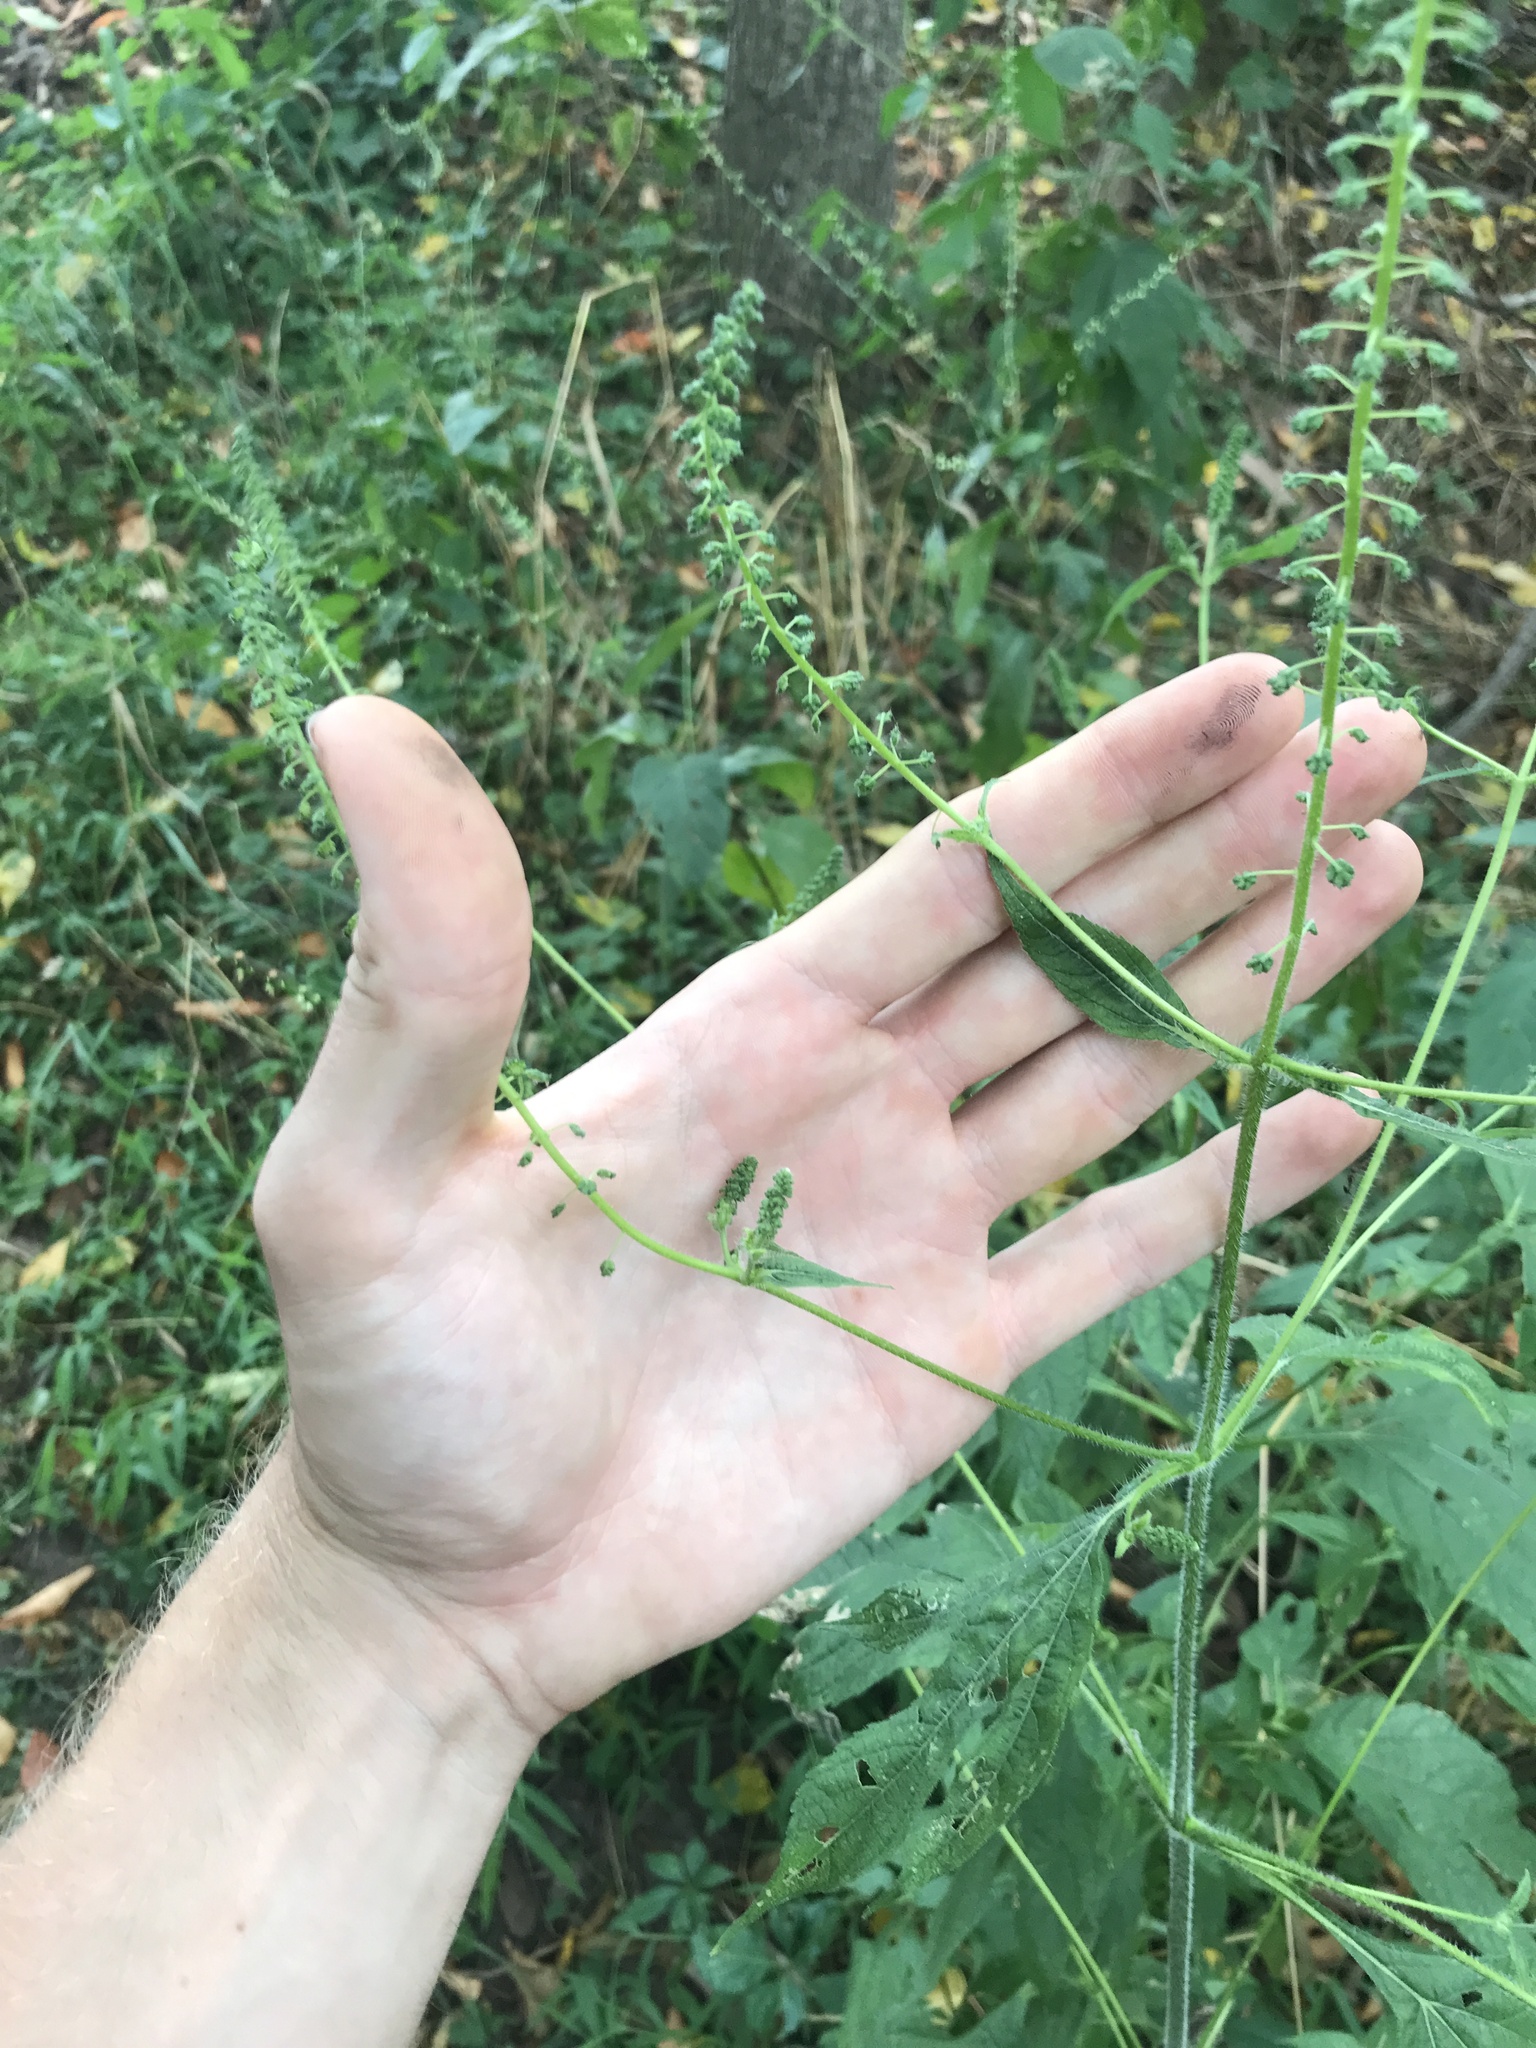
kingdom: Plantae
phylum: Tracheophyta
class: Magnoliopsida
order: Asterales
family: Asteraceae
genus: Ambrosia
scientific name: Ambrosia trifida
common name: Giant ragweed
